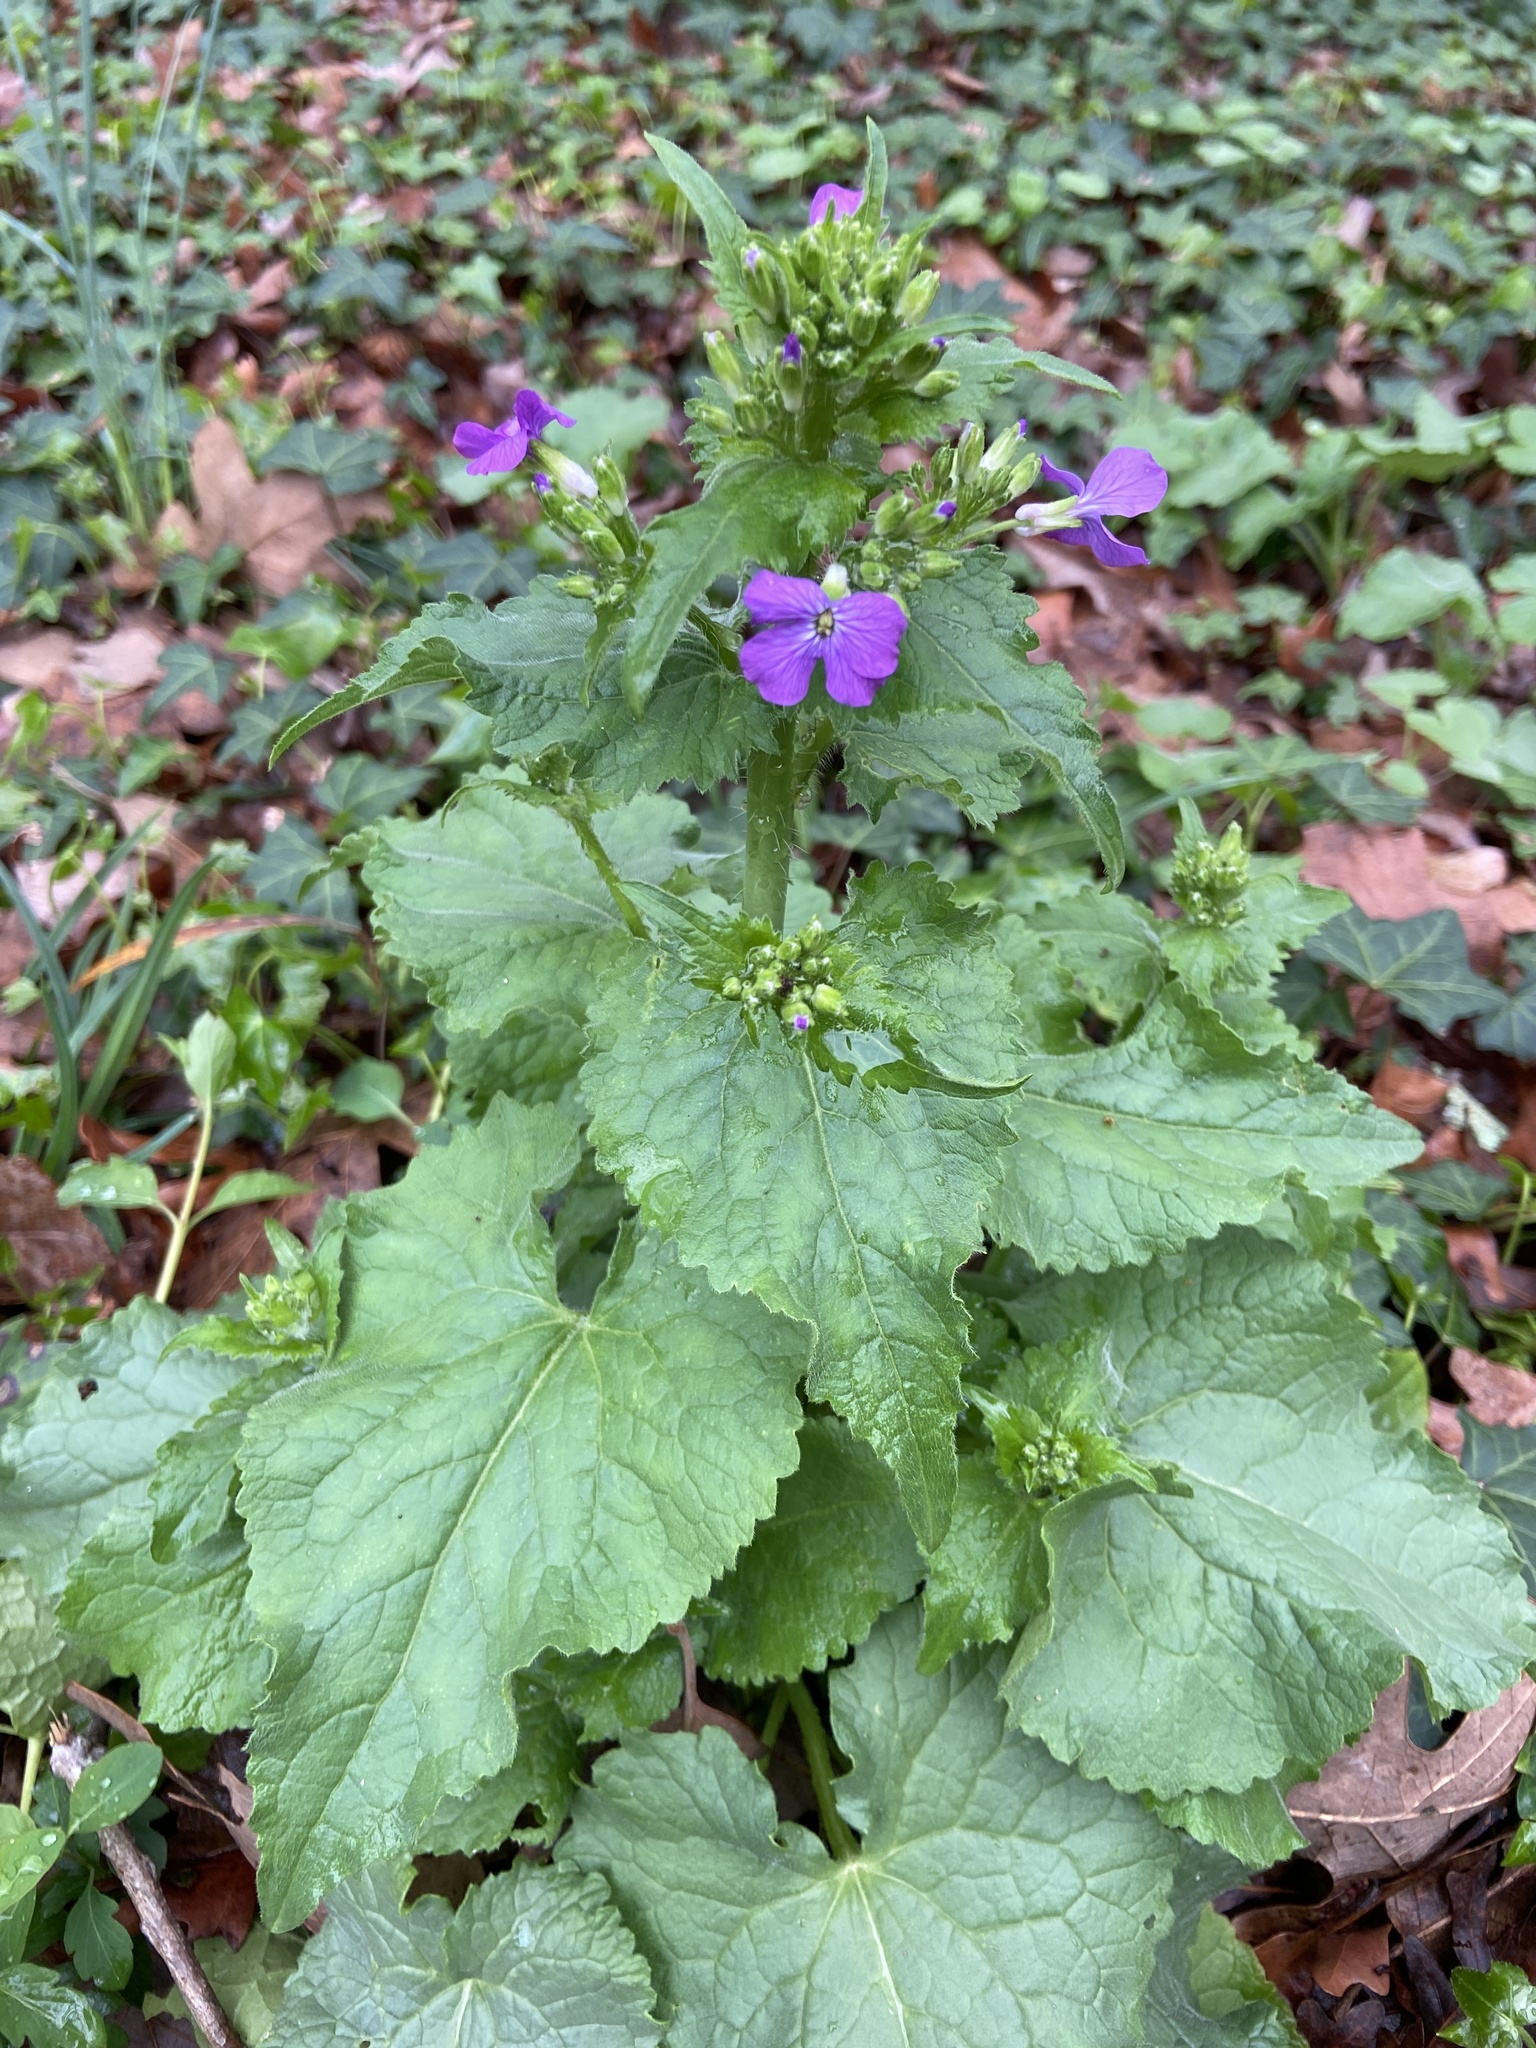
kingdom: Plantae
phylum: Tracheophyta
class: Magnoliopsida
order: Brassicales
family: Brassicaceae
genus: Lunaria
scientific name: Lunaria annua
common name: Honesty
